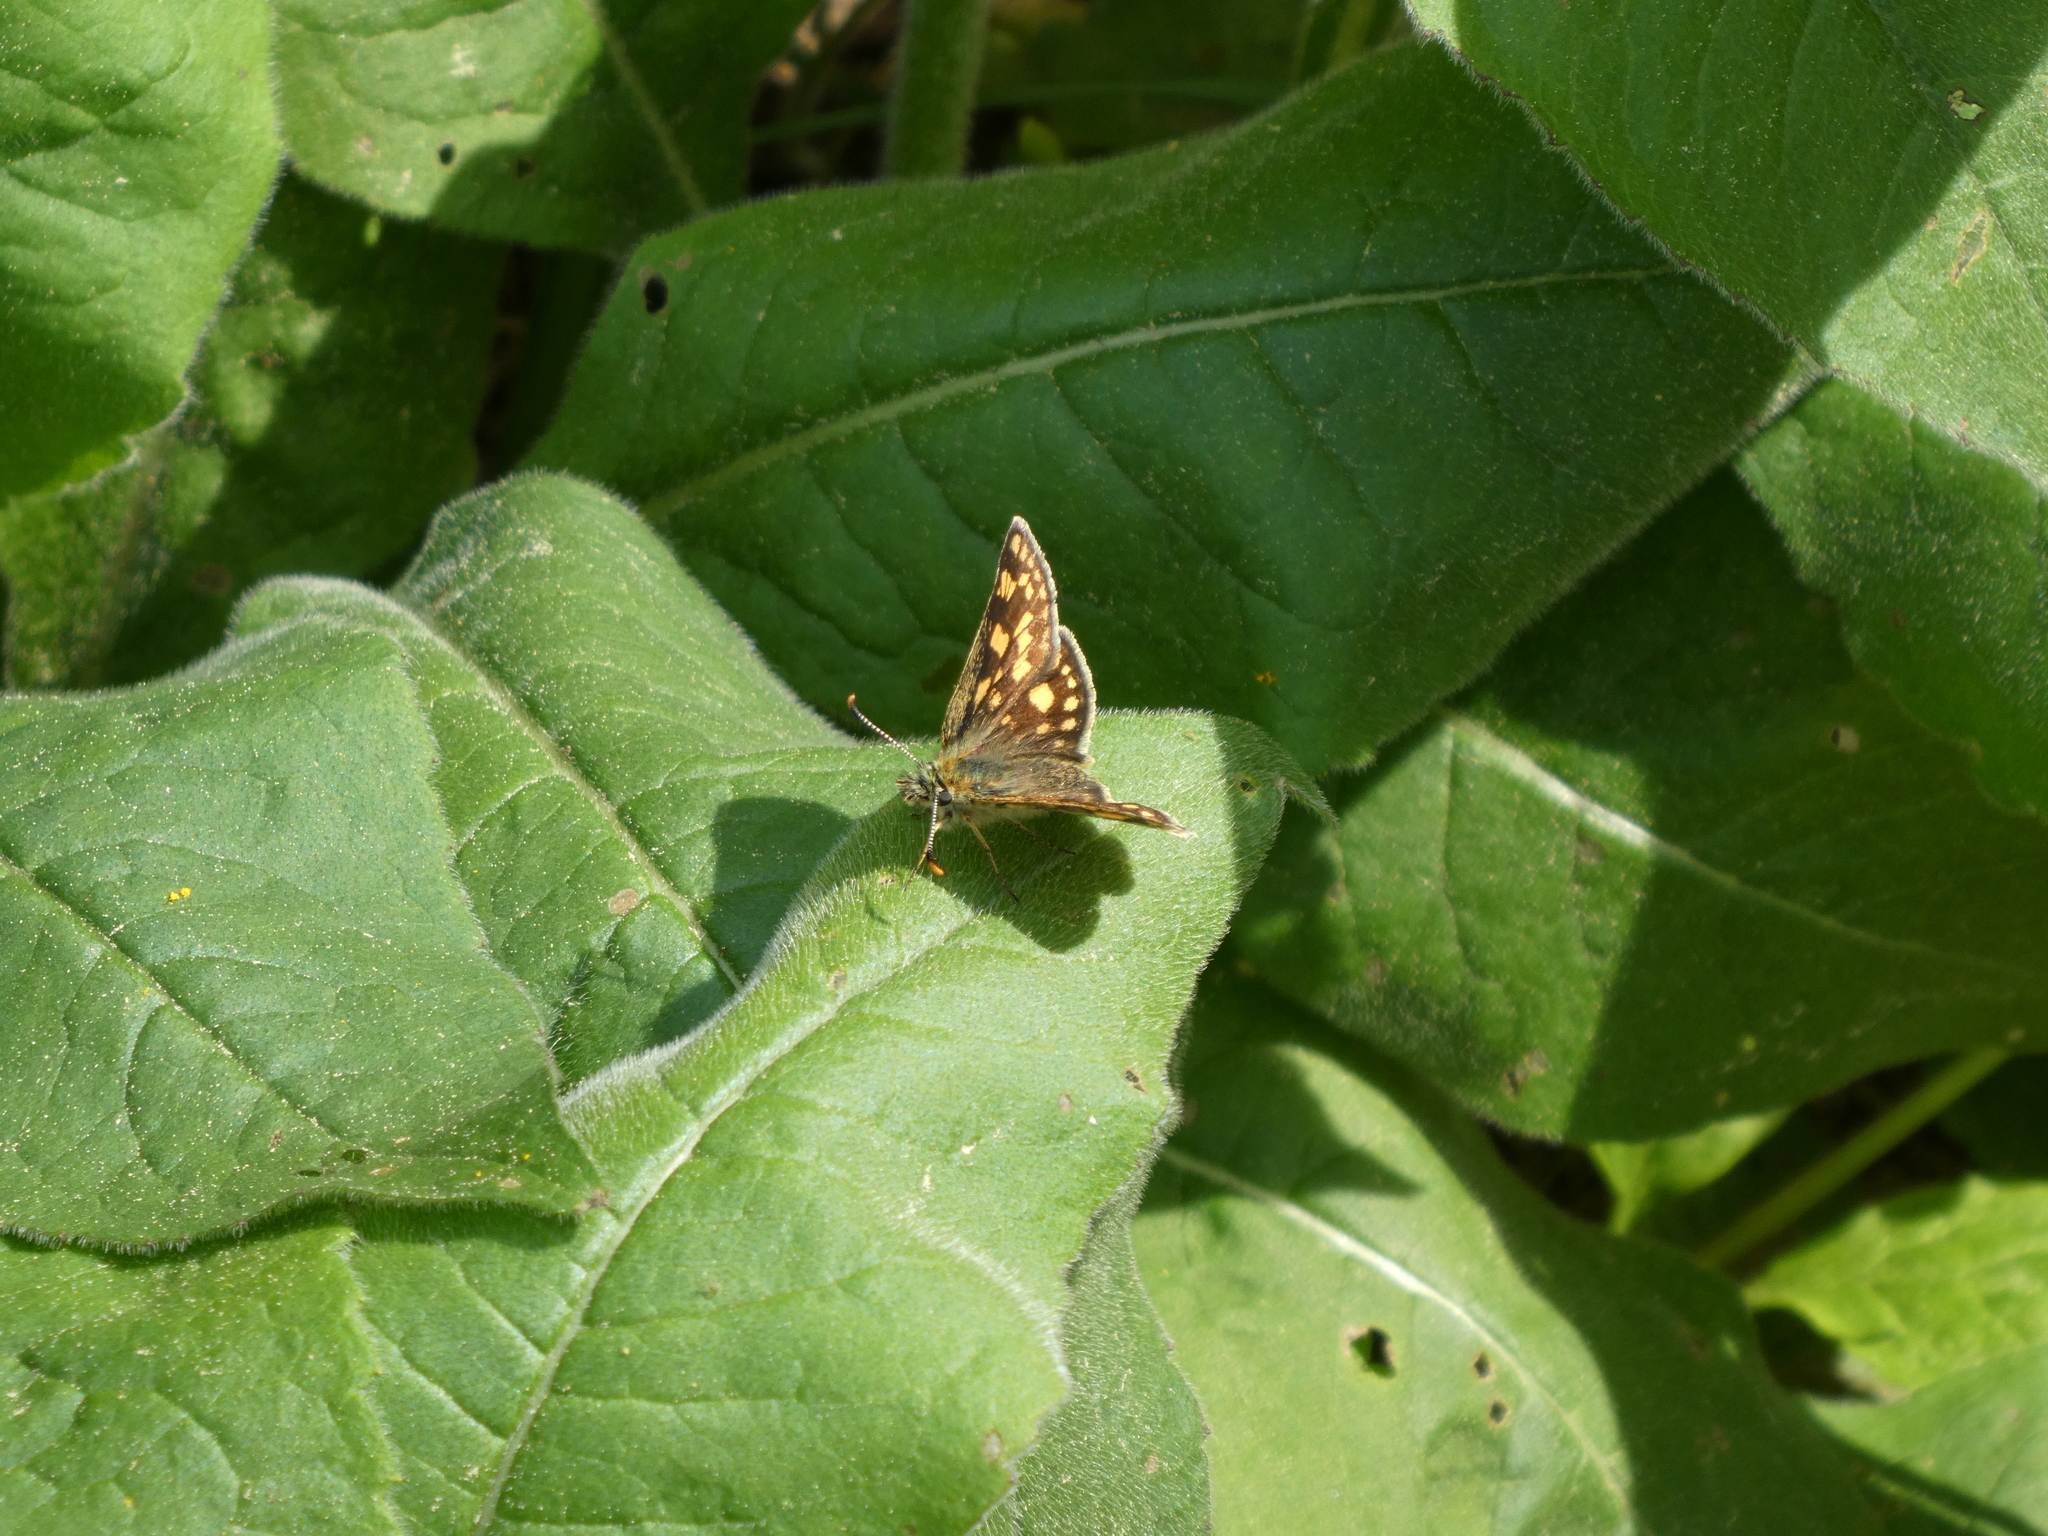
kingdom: Animalia
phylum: Arthropoda
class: Insecta
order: Lepidoptera
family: Hesperiidae
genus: Carterocephalus
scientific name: Carterocephalus palaemon
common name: Chequered skipper
